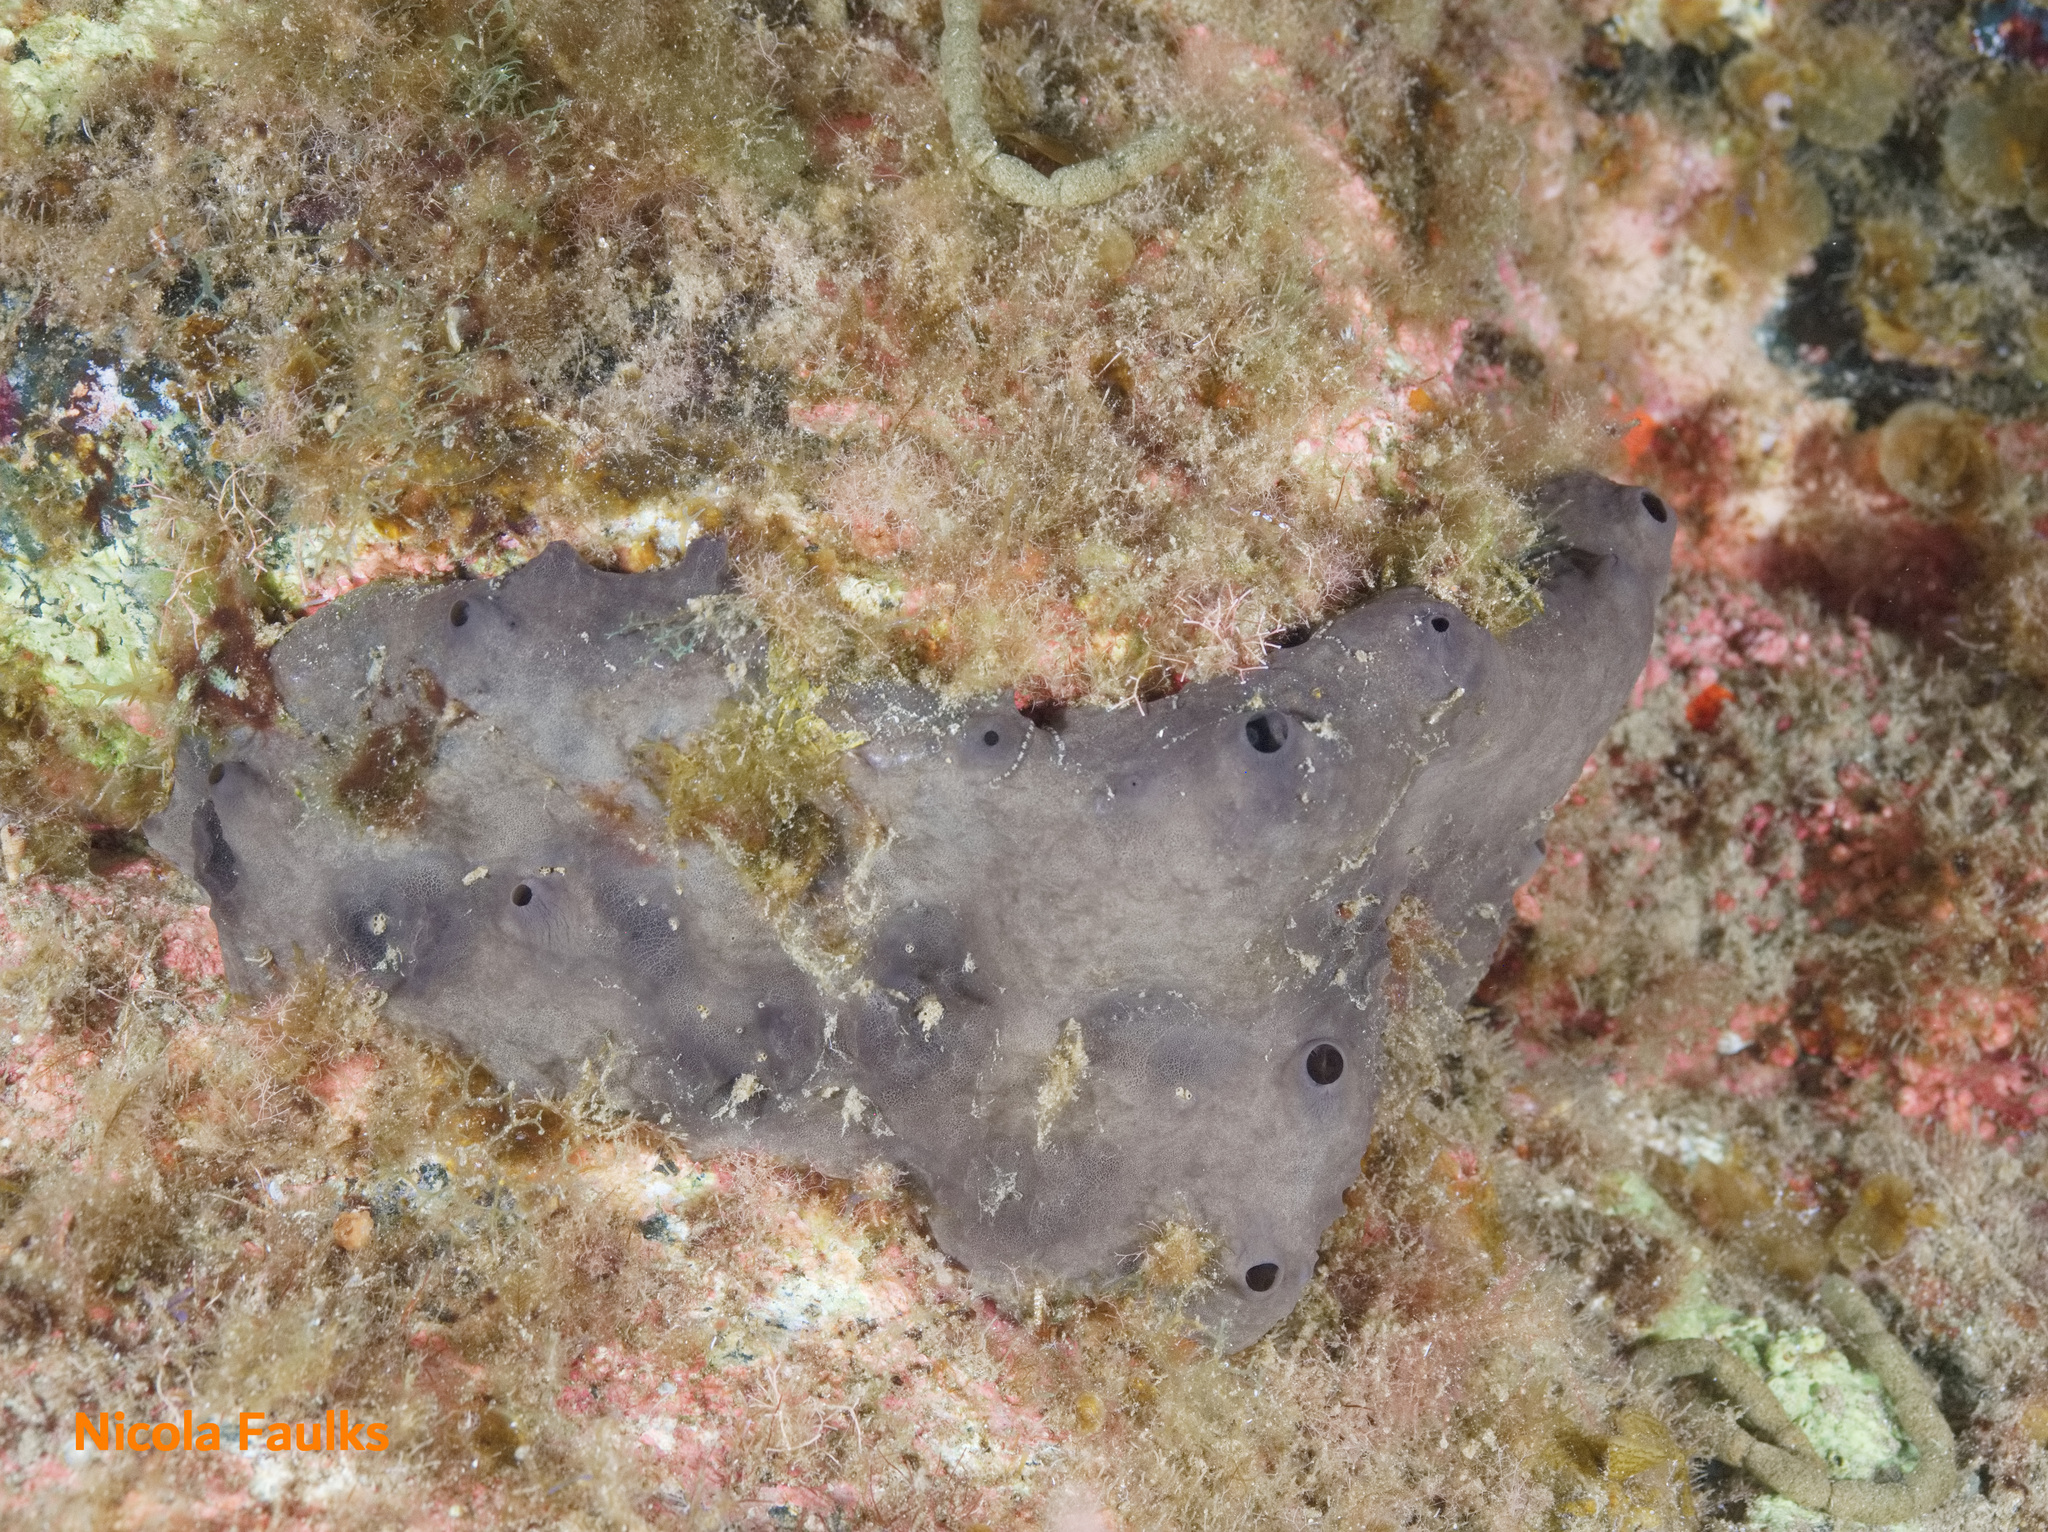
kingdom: Animalia
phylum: Porifera
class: Demospongiae
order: Dictyoceratida
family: Irciniidae
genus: Ircinia
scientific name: Ircinia oros
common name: Grey leather sponge
